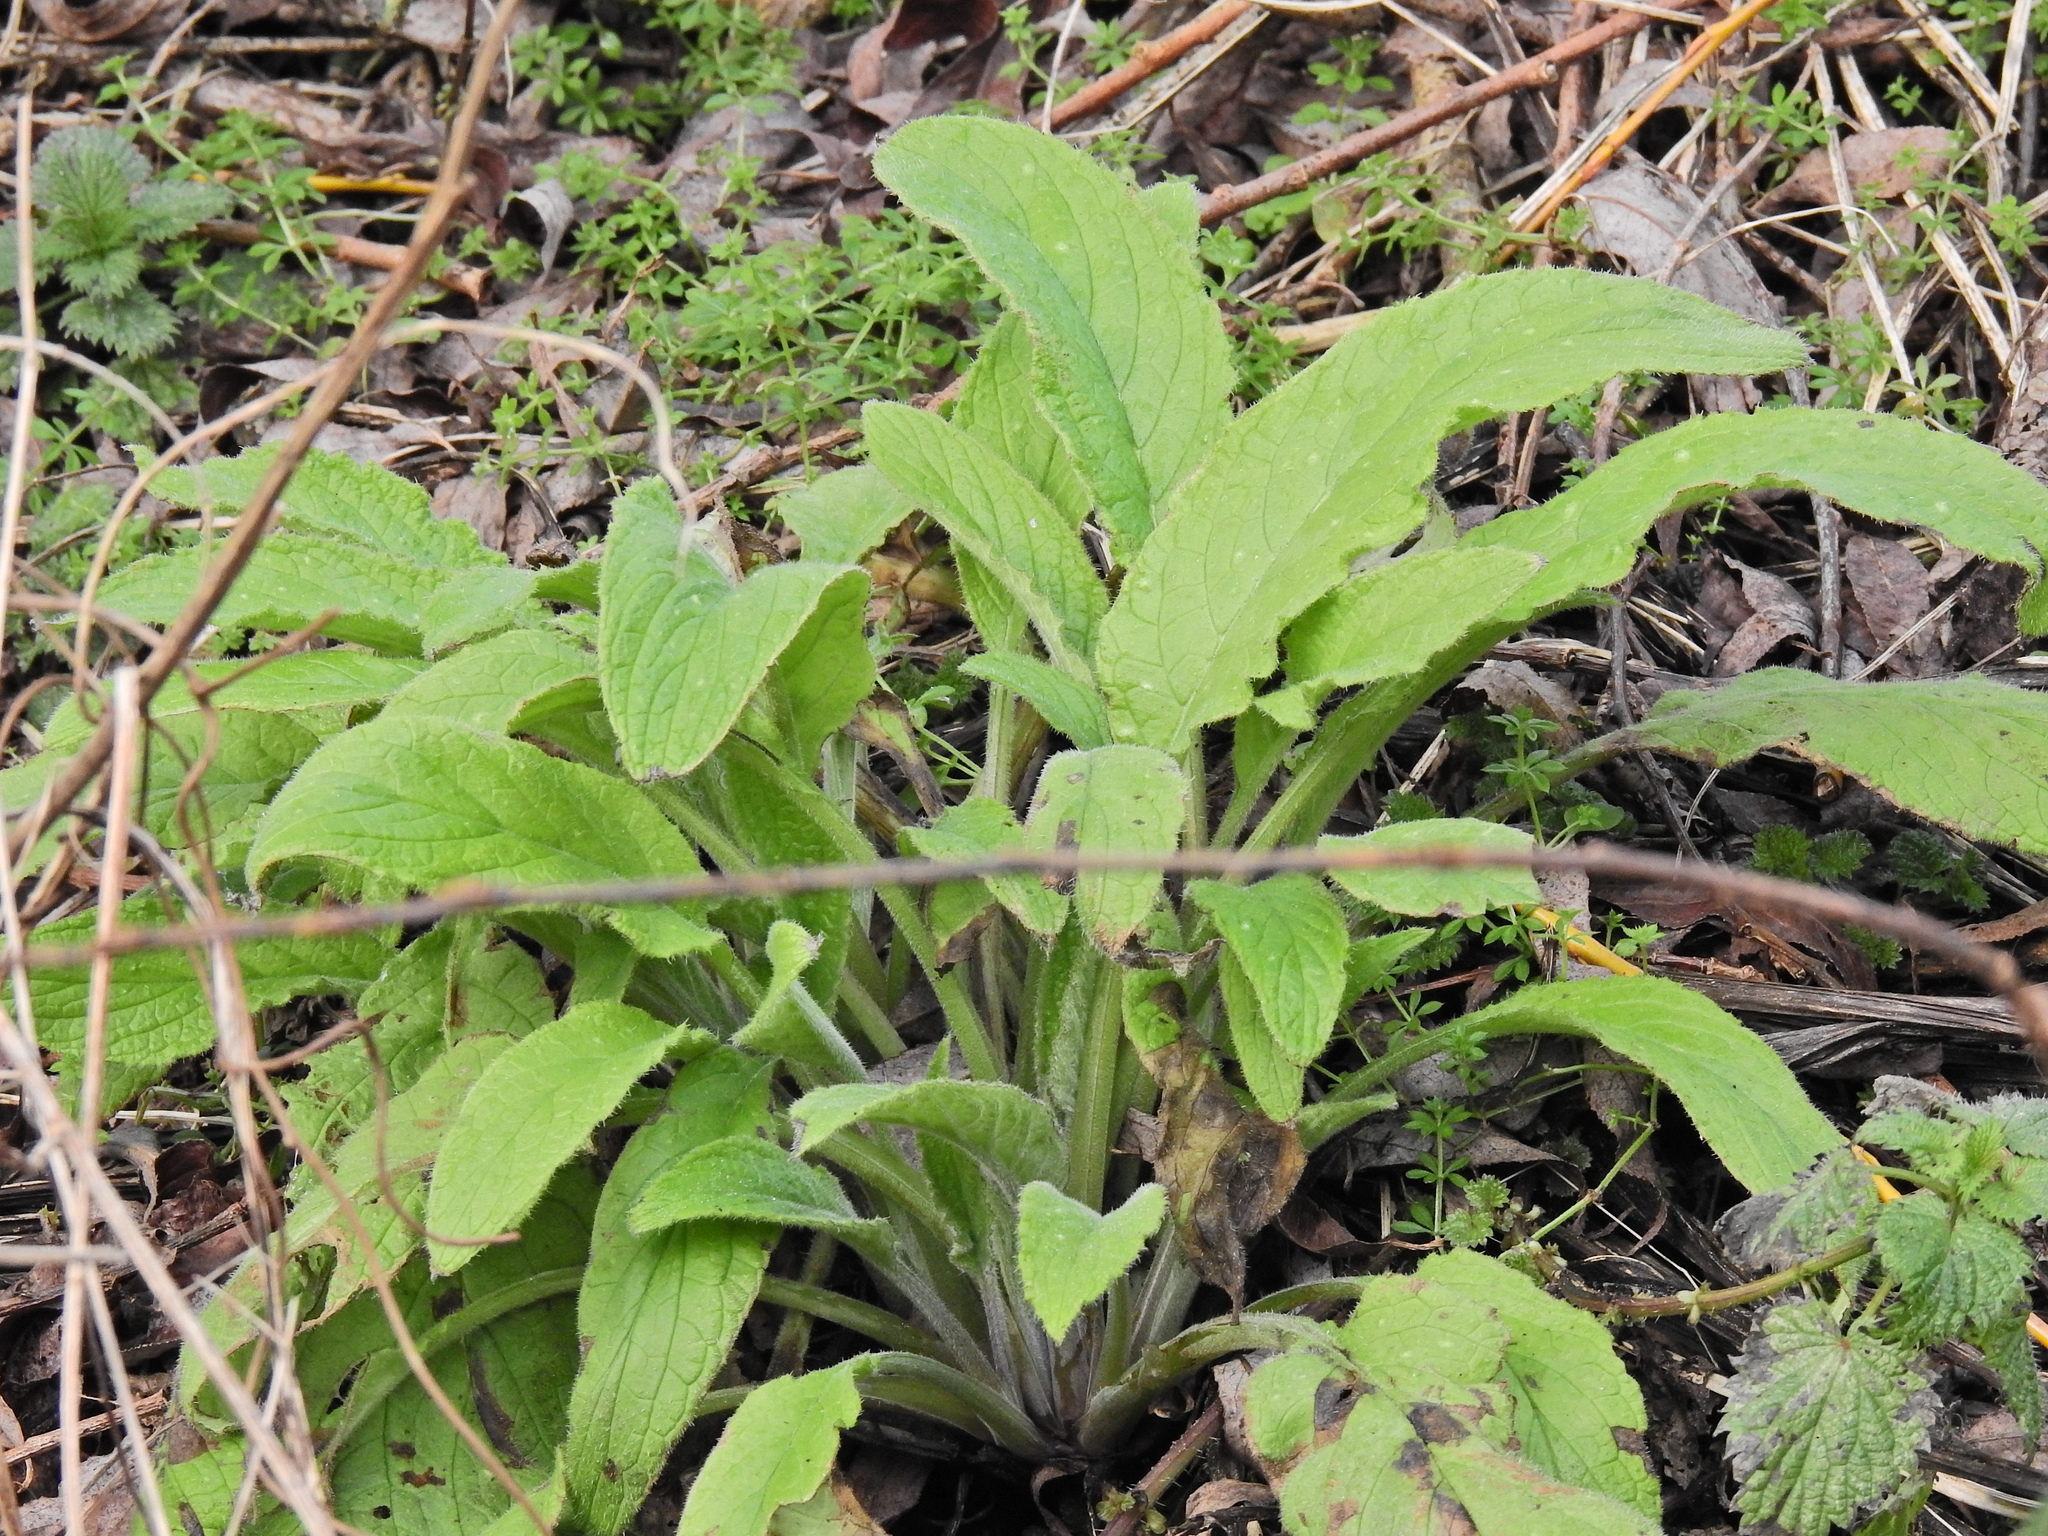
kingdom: Plantae
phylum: Tracheophyta
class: Magnoliopsida
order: Boraginales
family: Boraginaceae
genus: Pentaglottis
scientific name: Pentaglottis sempervirens
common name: Green alkanet
